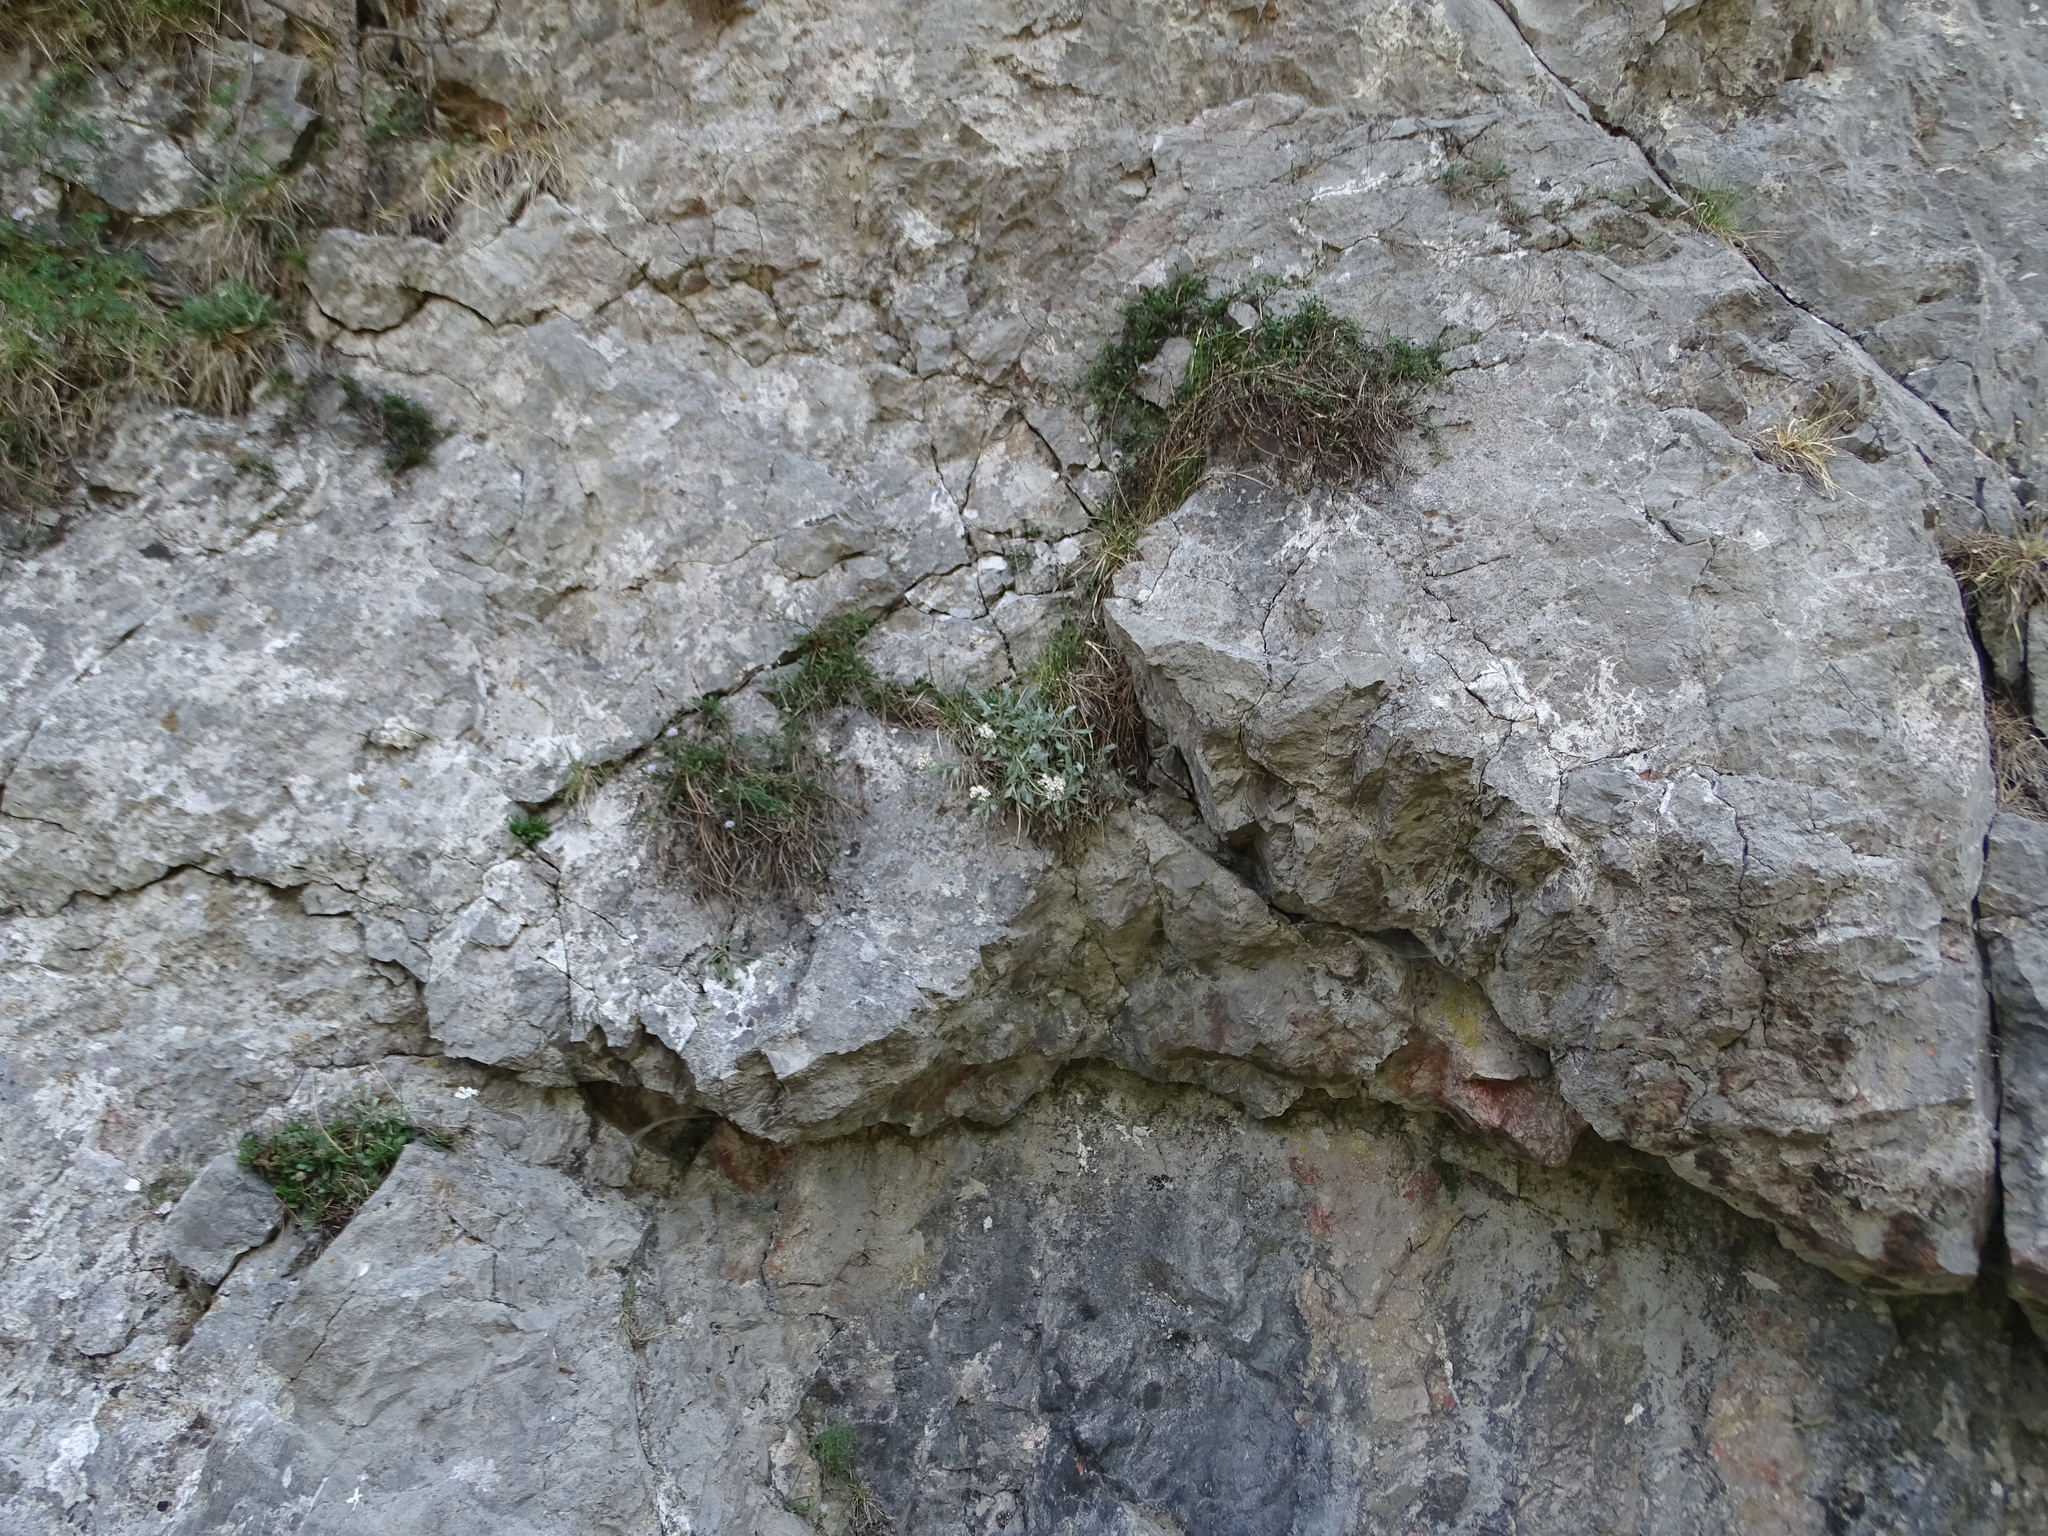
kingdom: Plantae
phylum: Tracheophyta
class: Magnoliopsida
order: Asterales
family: Asteraceae
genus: Achillea
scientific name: Achillea clavennae
